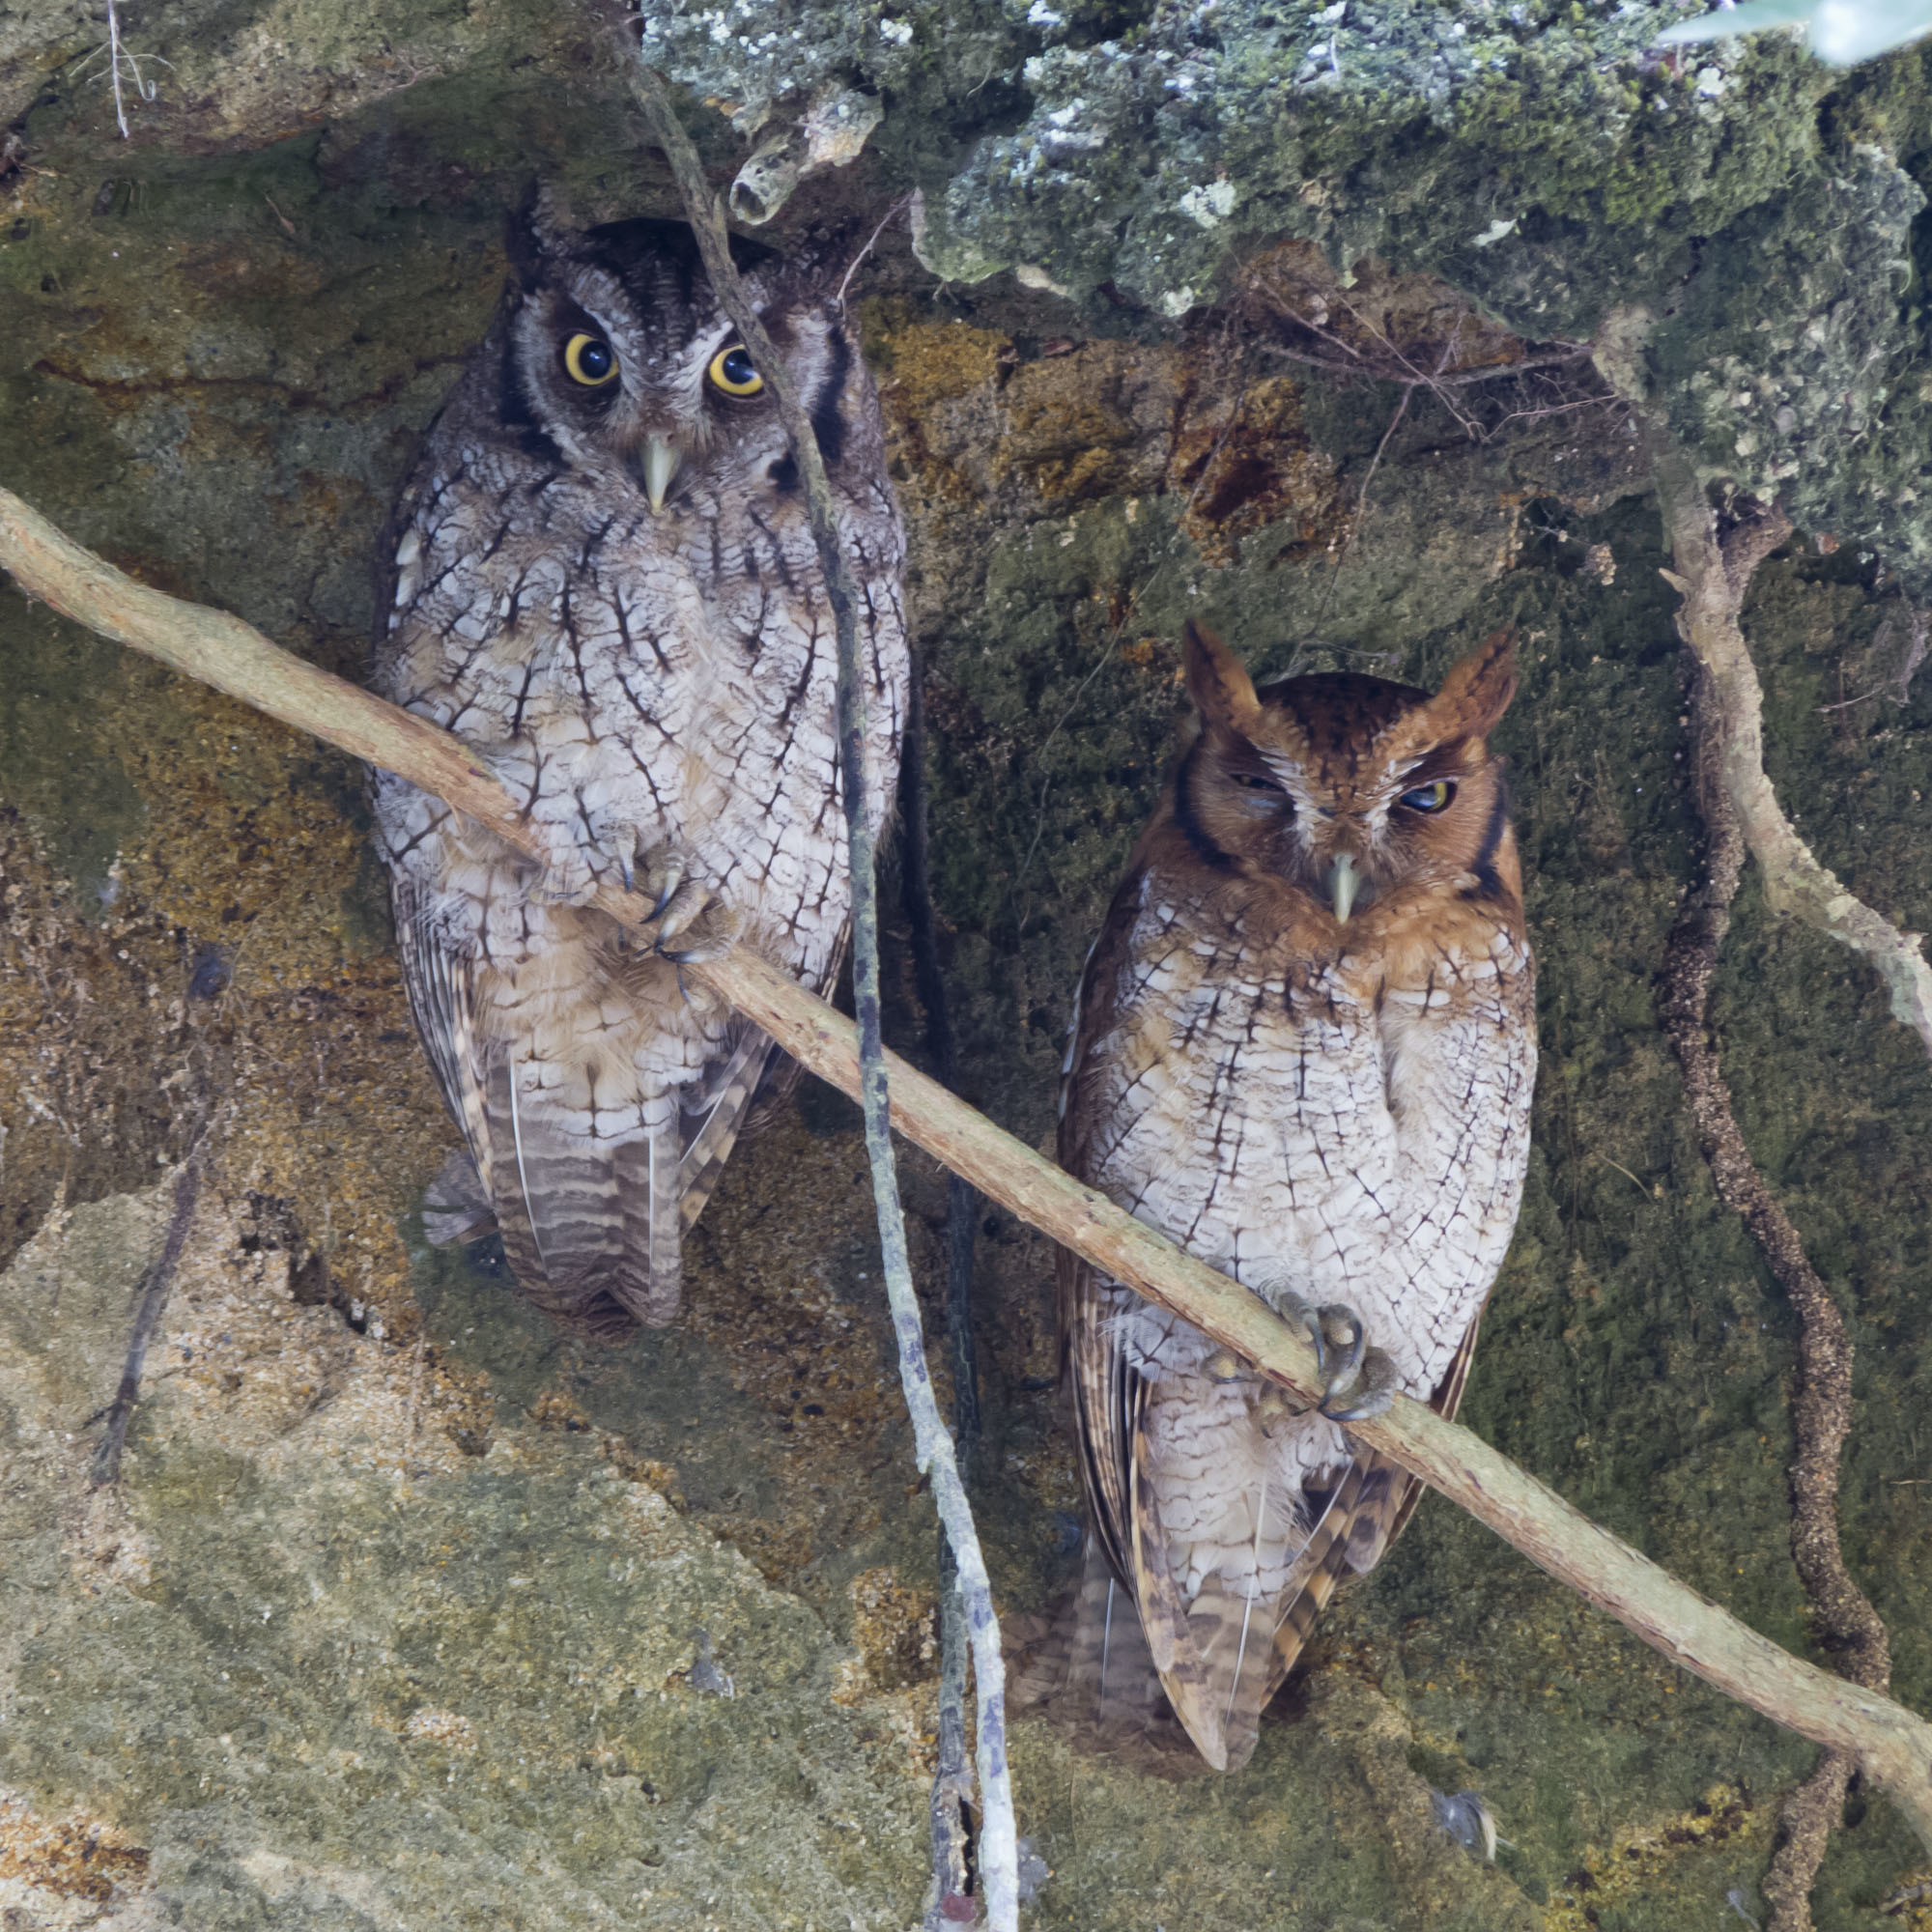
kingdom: Animalia
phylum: Chordata
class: Aves
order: Strigiformes
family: Strigidae
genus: Megascops
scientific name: Megascops choliba
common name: Tropical screech-owl
